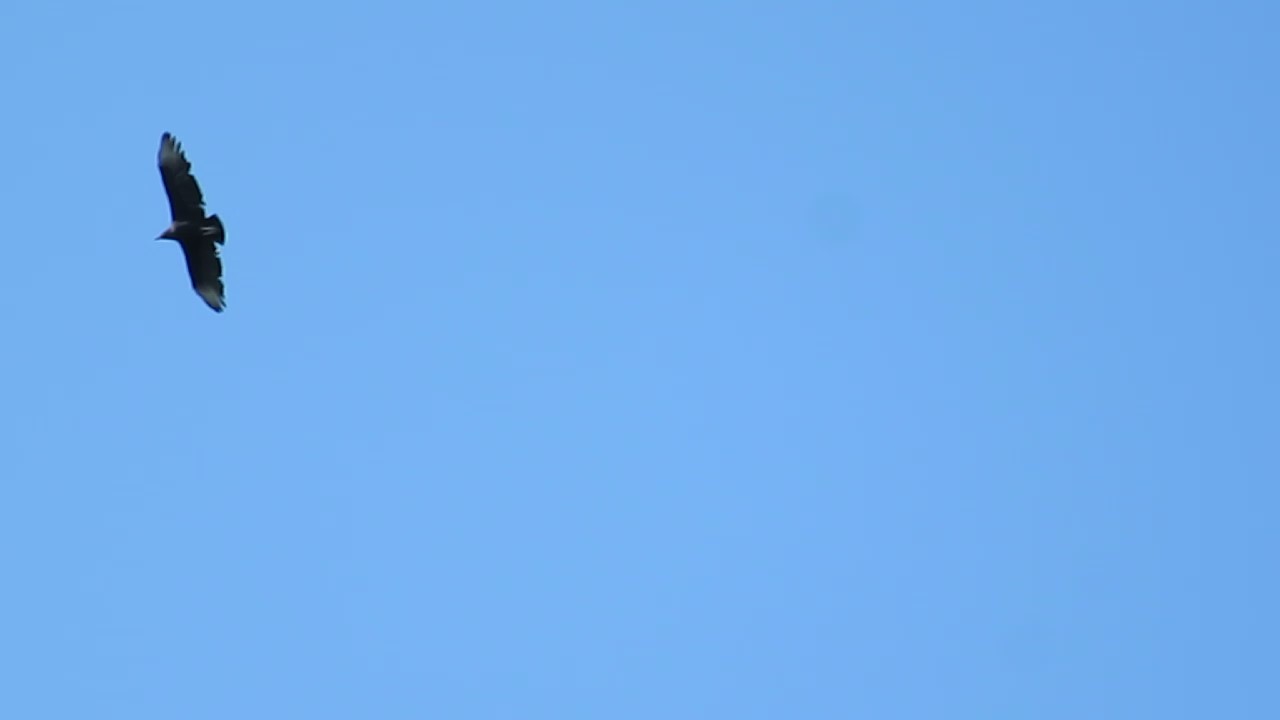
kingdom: Animalia
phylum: Chordata
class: Aves
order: Accipitriformes
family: Cathartidae
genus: Coragyps
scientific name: Coragyps atratus
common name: Black vulture
